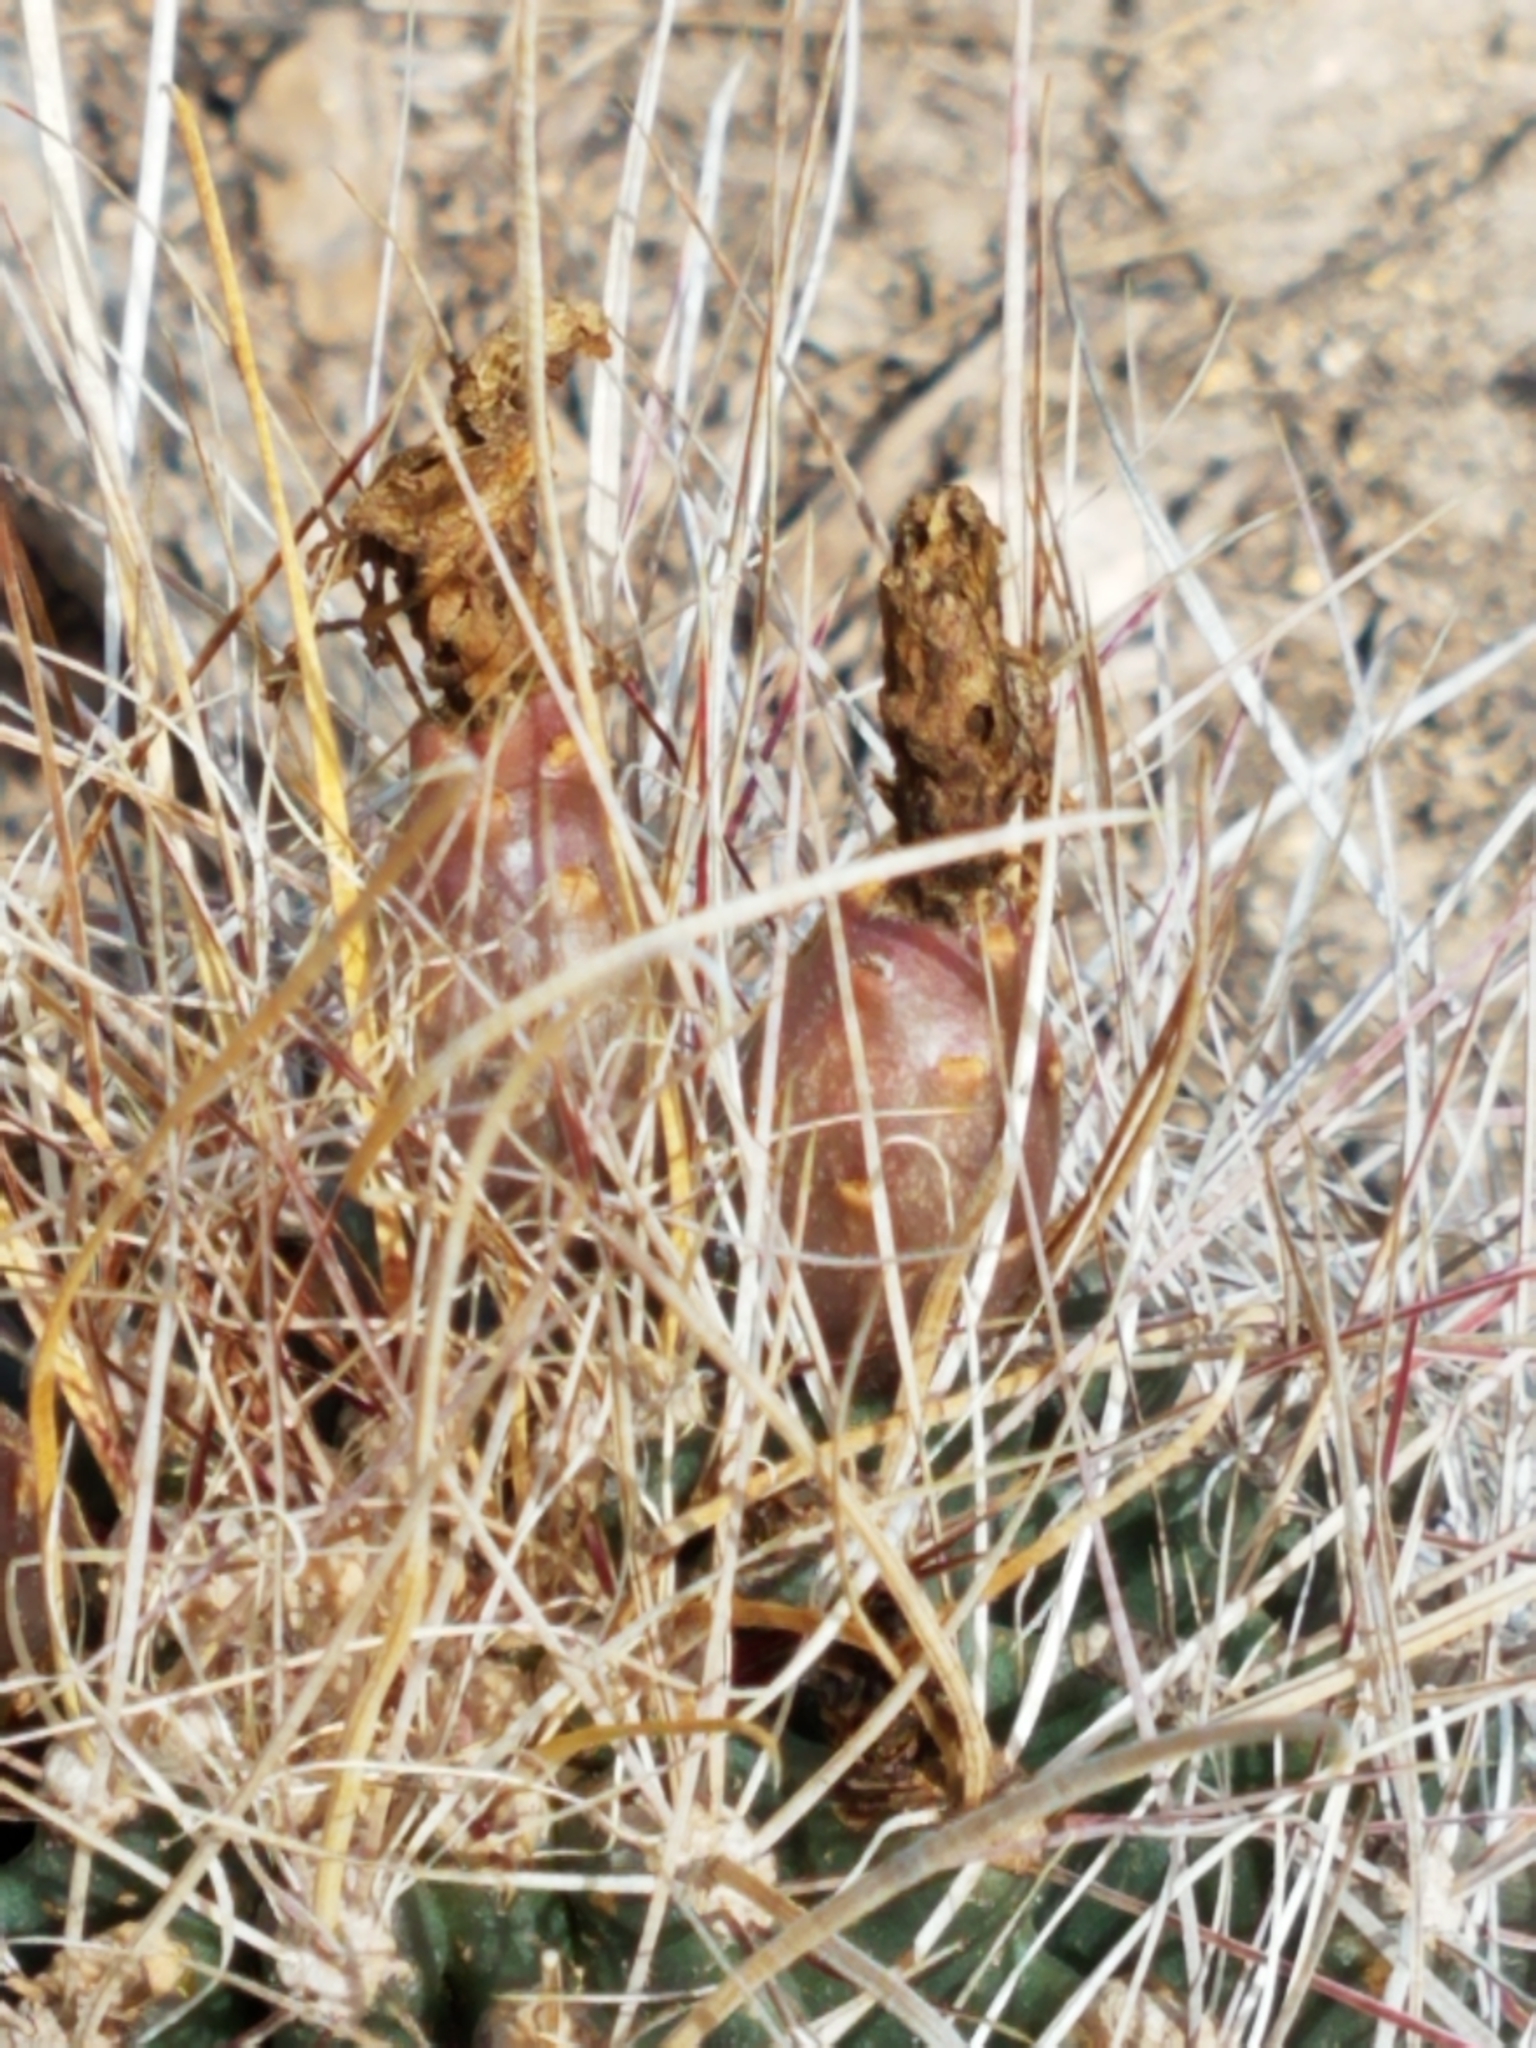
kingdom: Plantae
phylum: Tracheophyta
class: Magnoliopsida
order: Caryophyllales
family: Cactaceae
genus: Bisnaga
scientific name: Bisnaga hamatacantha
